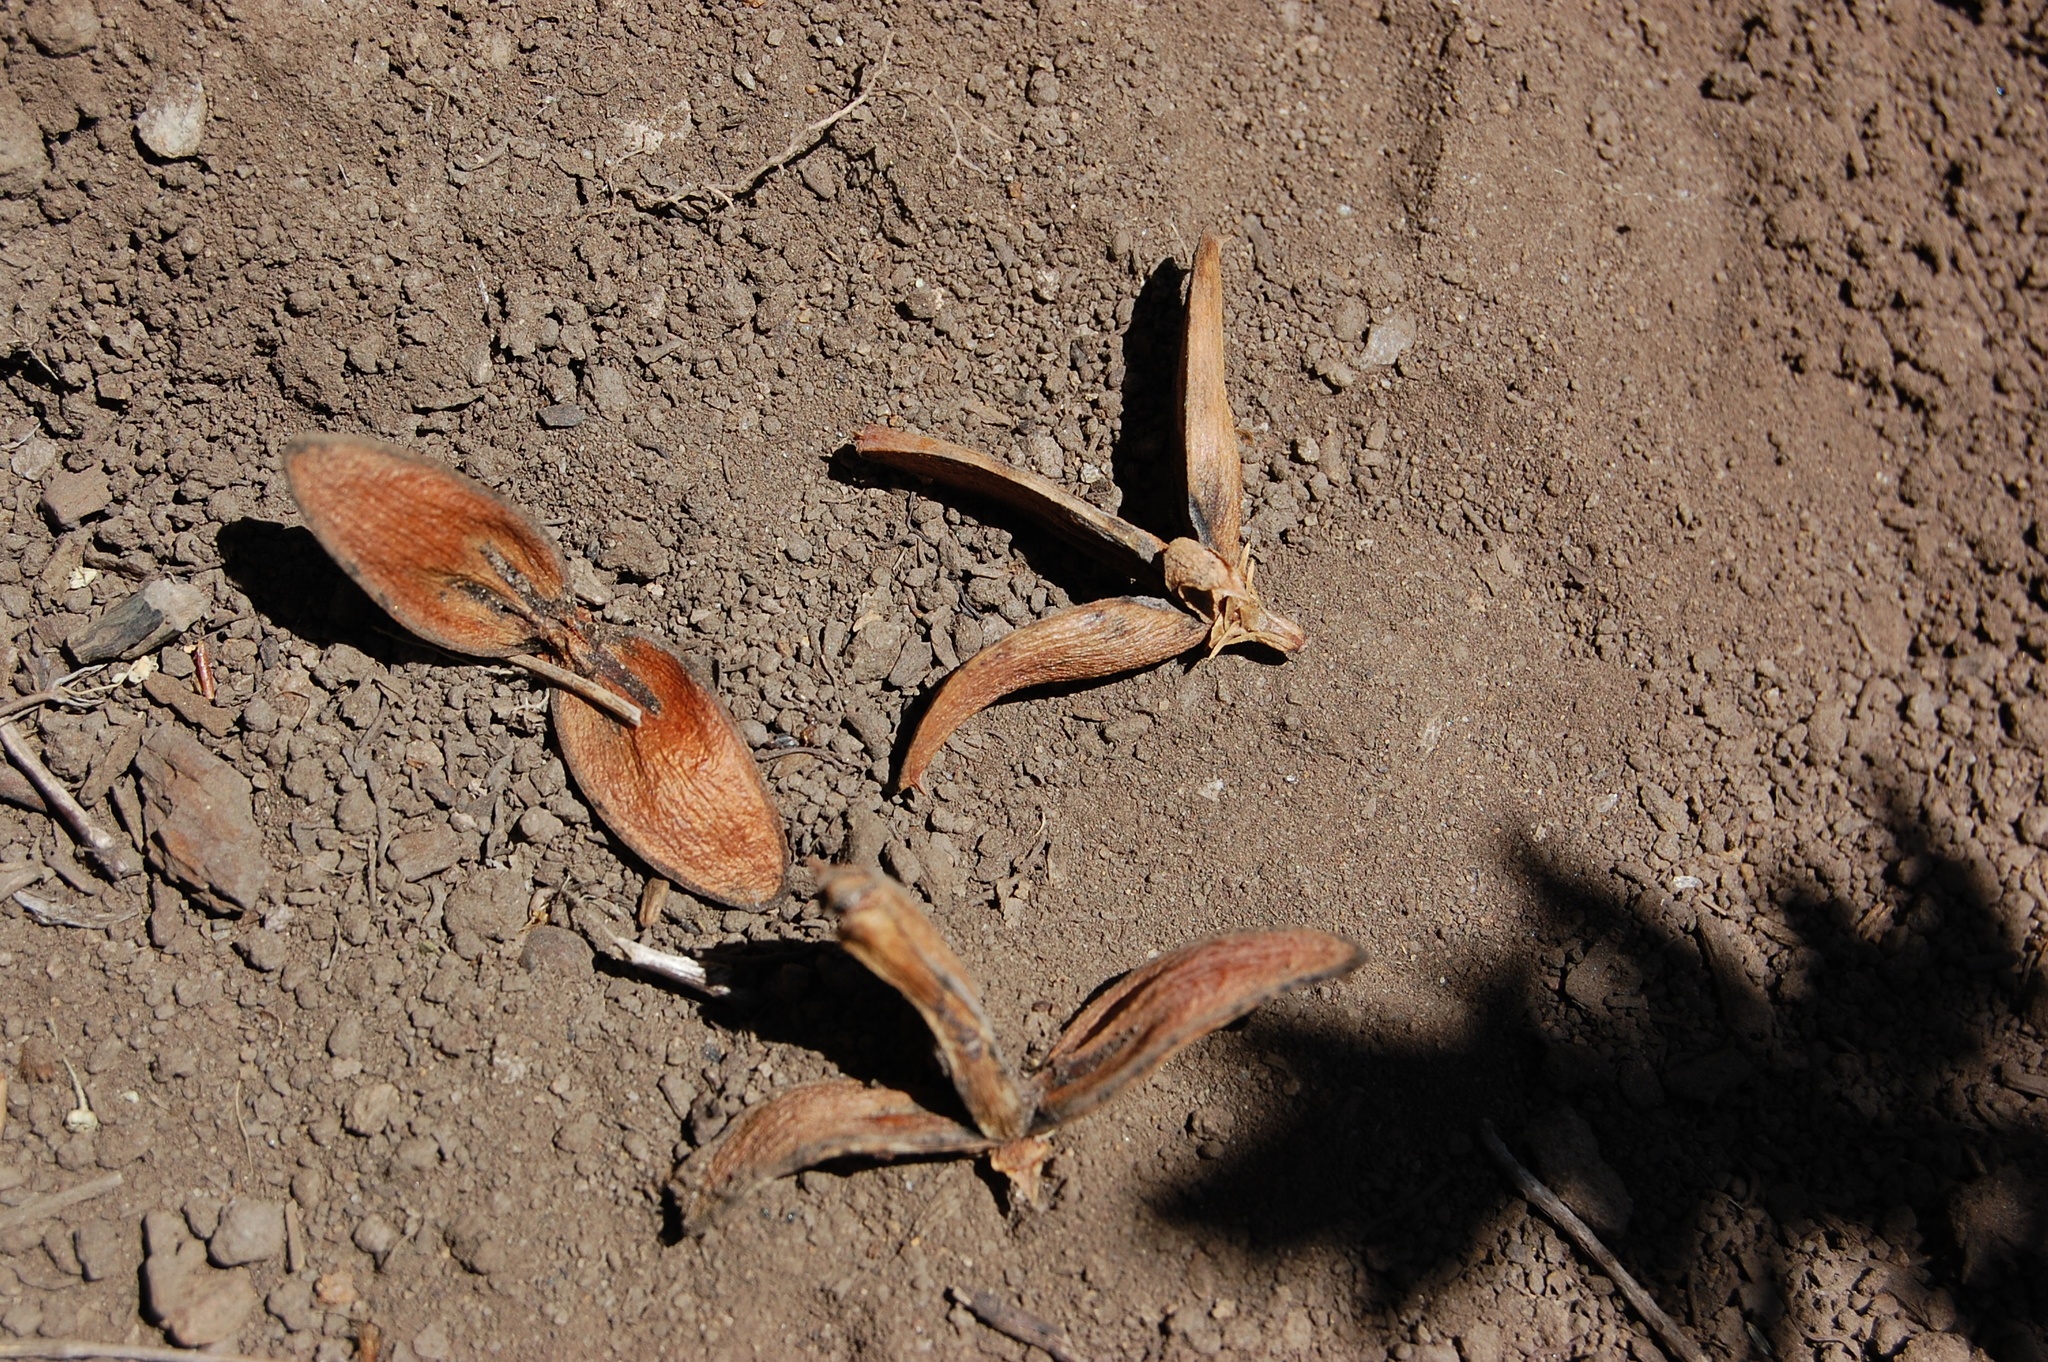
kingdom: Plantae
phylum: Tracheophyta
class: Pinopsida
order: Pinales
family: Cupressaceae
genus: Calocedrus
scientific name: Calocedrus decurrens
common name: Californian incense-cedar
